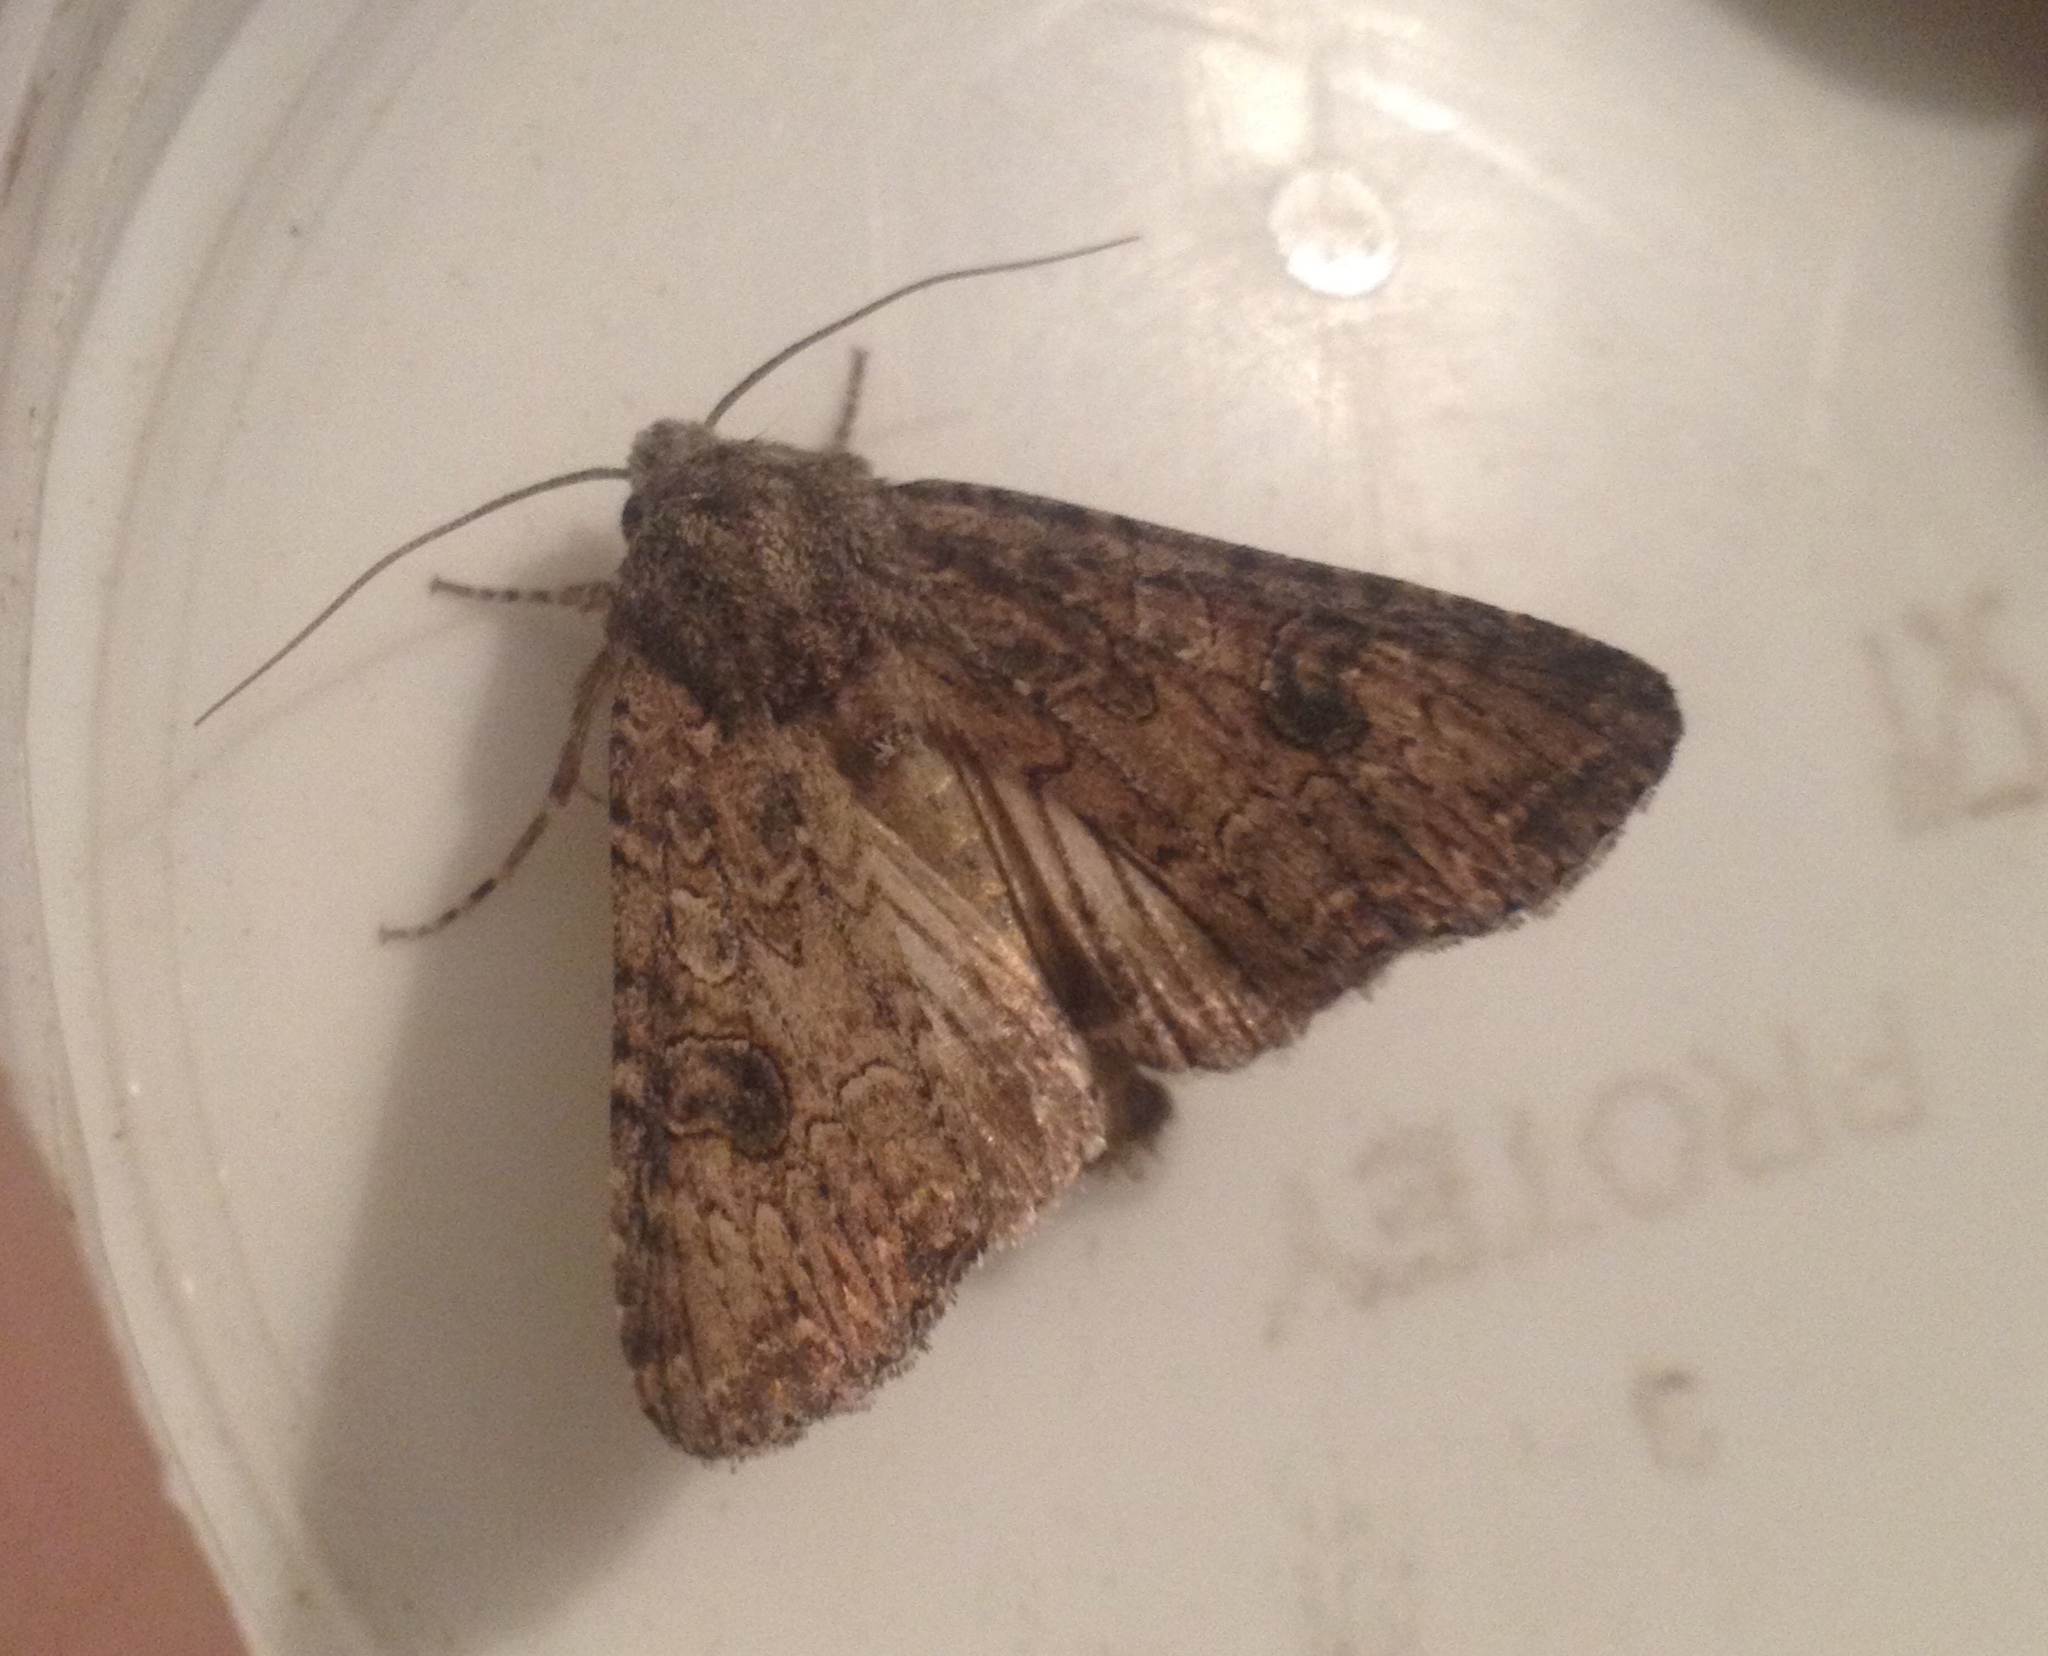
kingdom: Animalia
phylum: Arthropoda
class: Insecta
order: Lepidoptera
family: Noctuidae
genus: Anarta
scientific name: Anarta trifolii
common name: Clover cutworm moth
